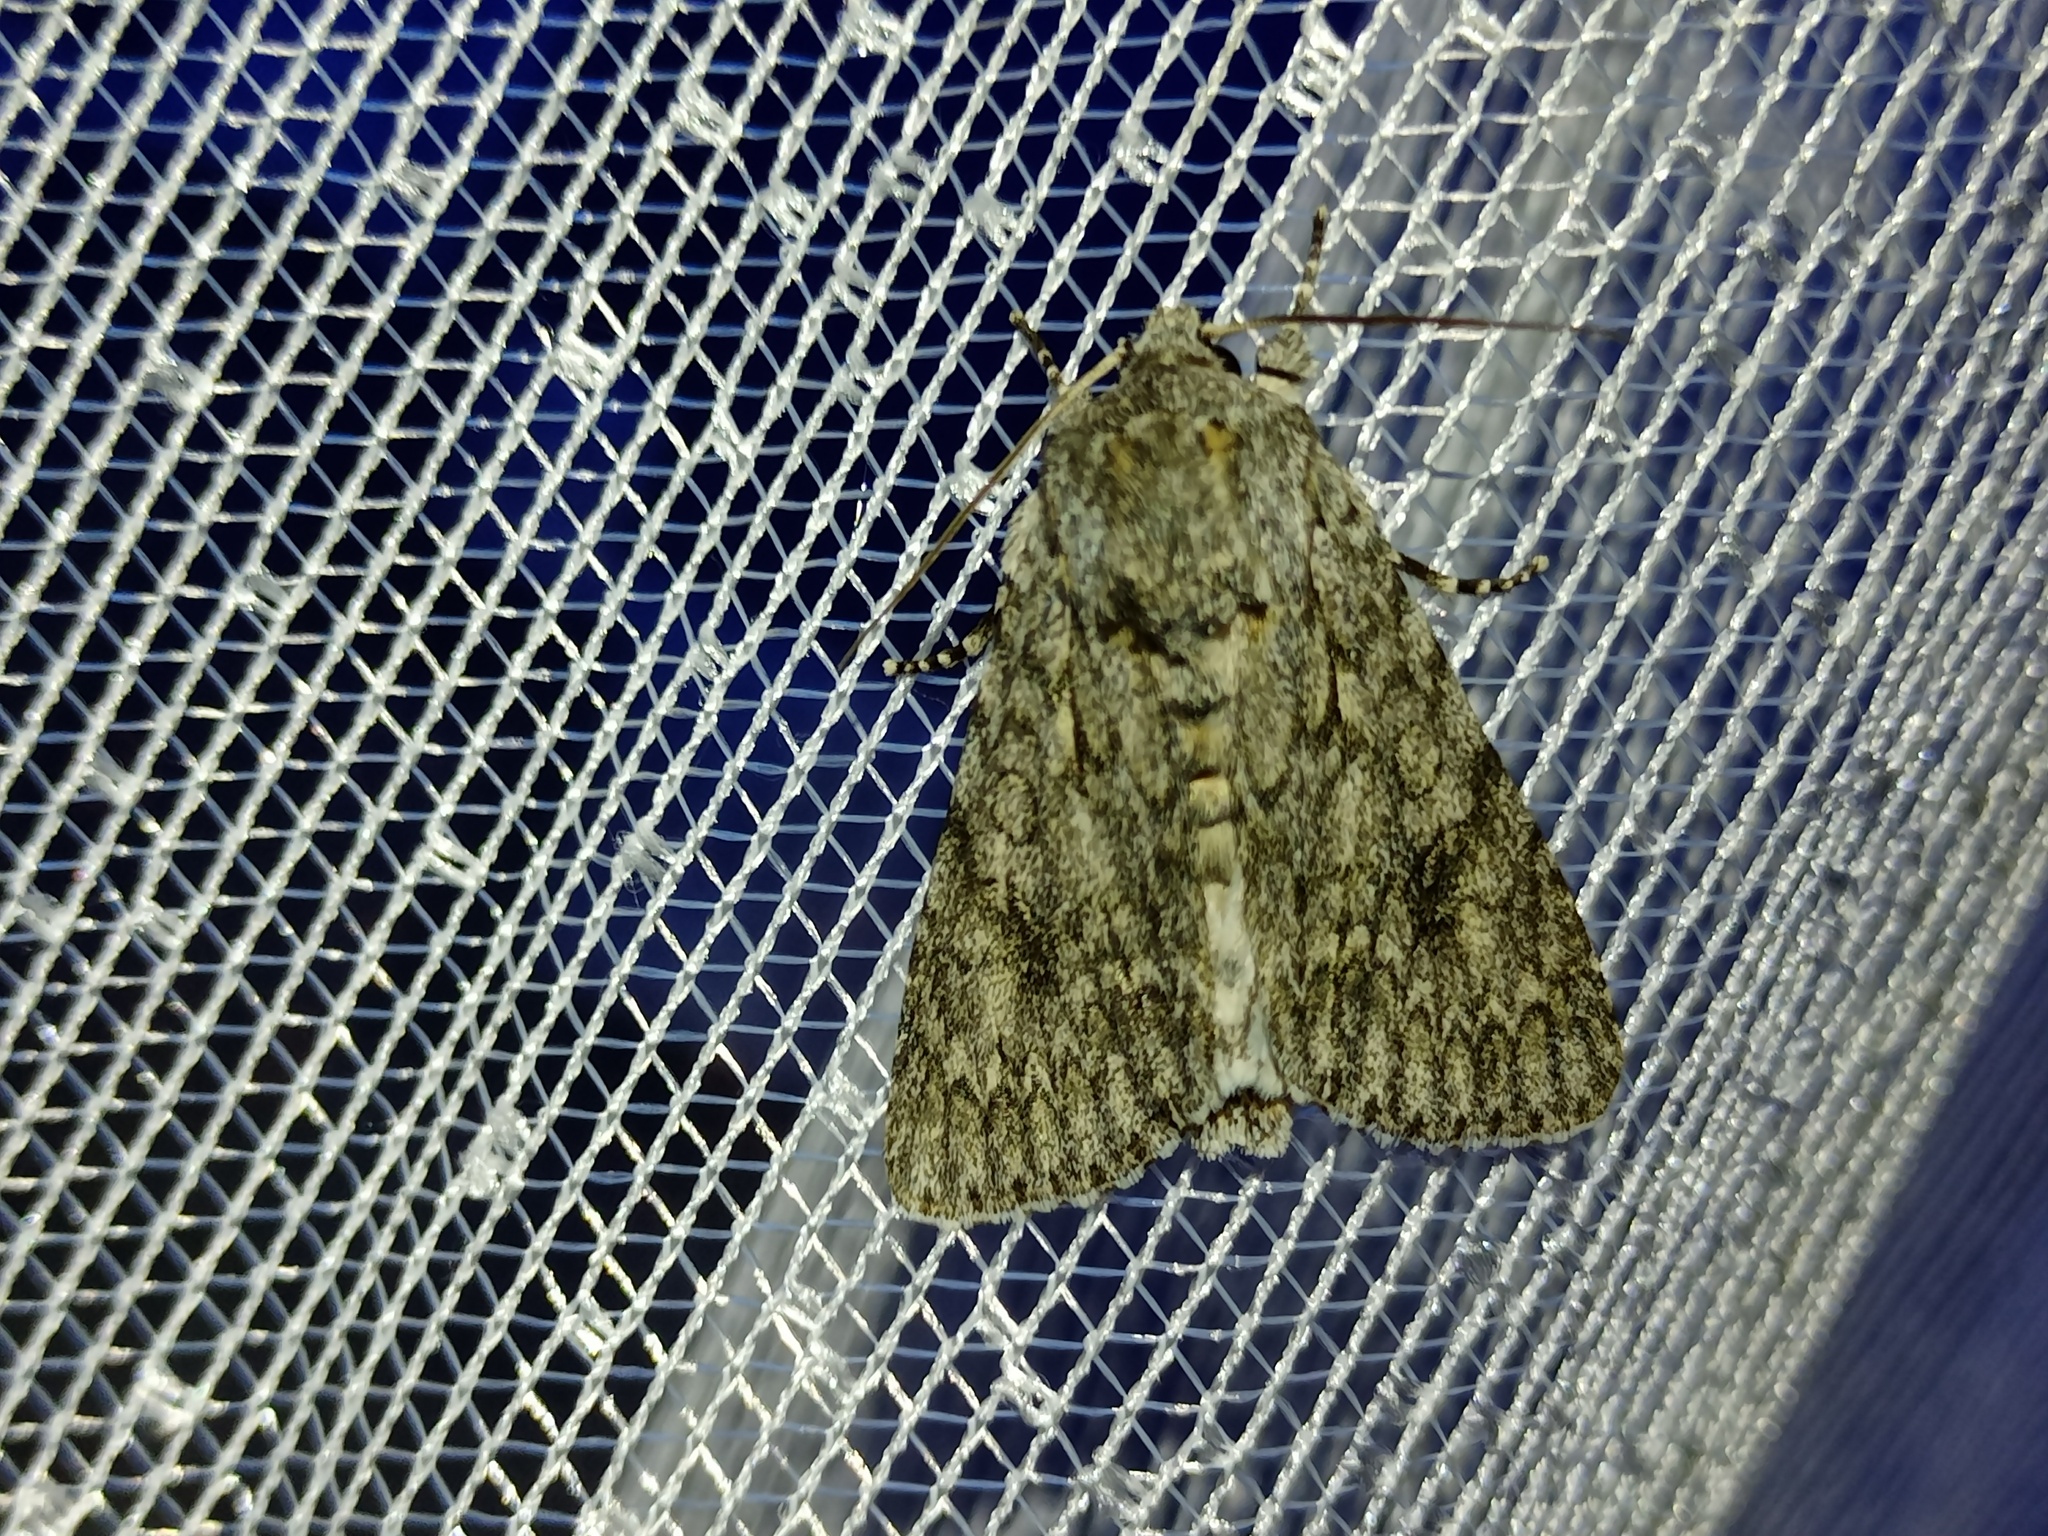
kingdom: Animalia
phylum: Arthropoda
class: Insecta
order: Lepidoptera
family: Noctuidae
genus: Acronicta
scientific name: Acronicta aceris
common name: Sycamore
